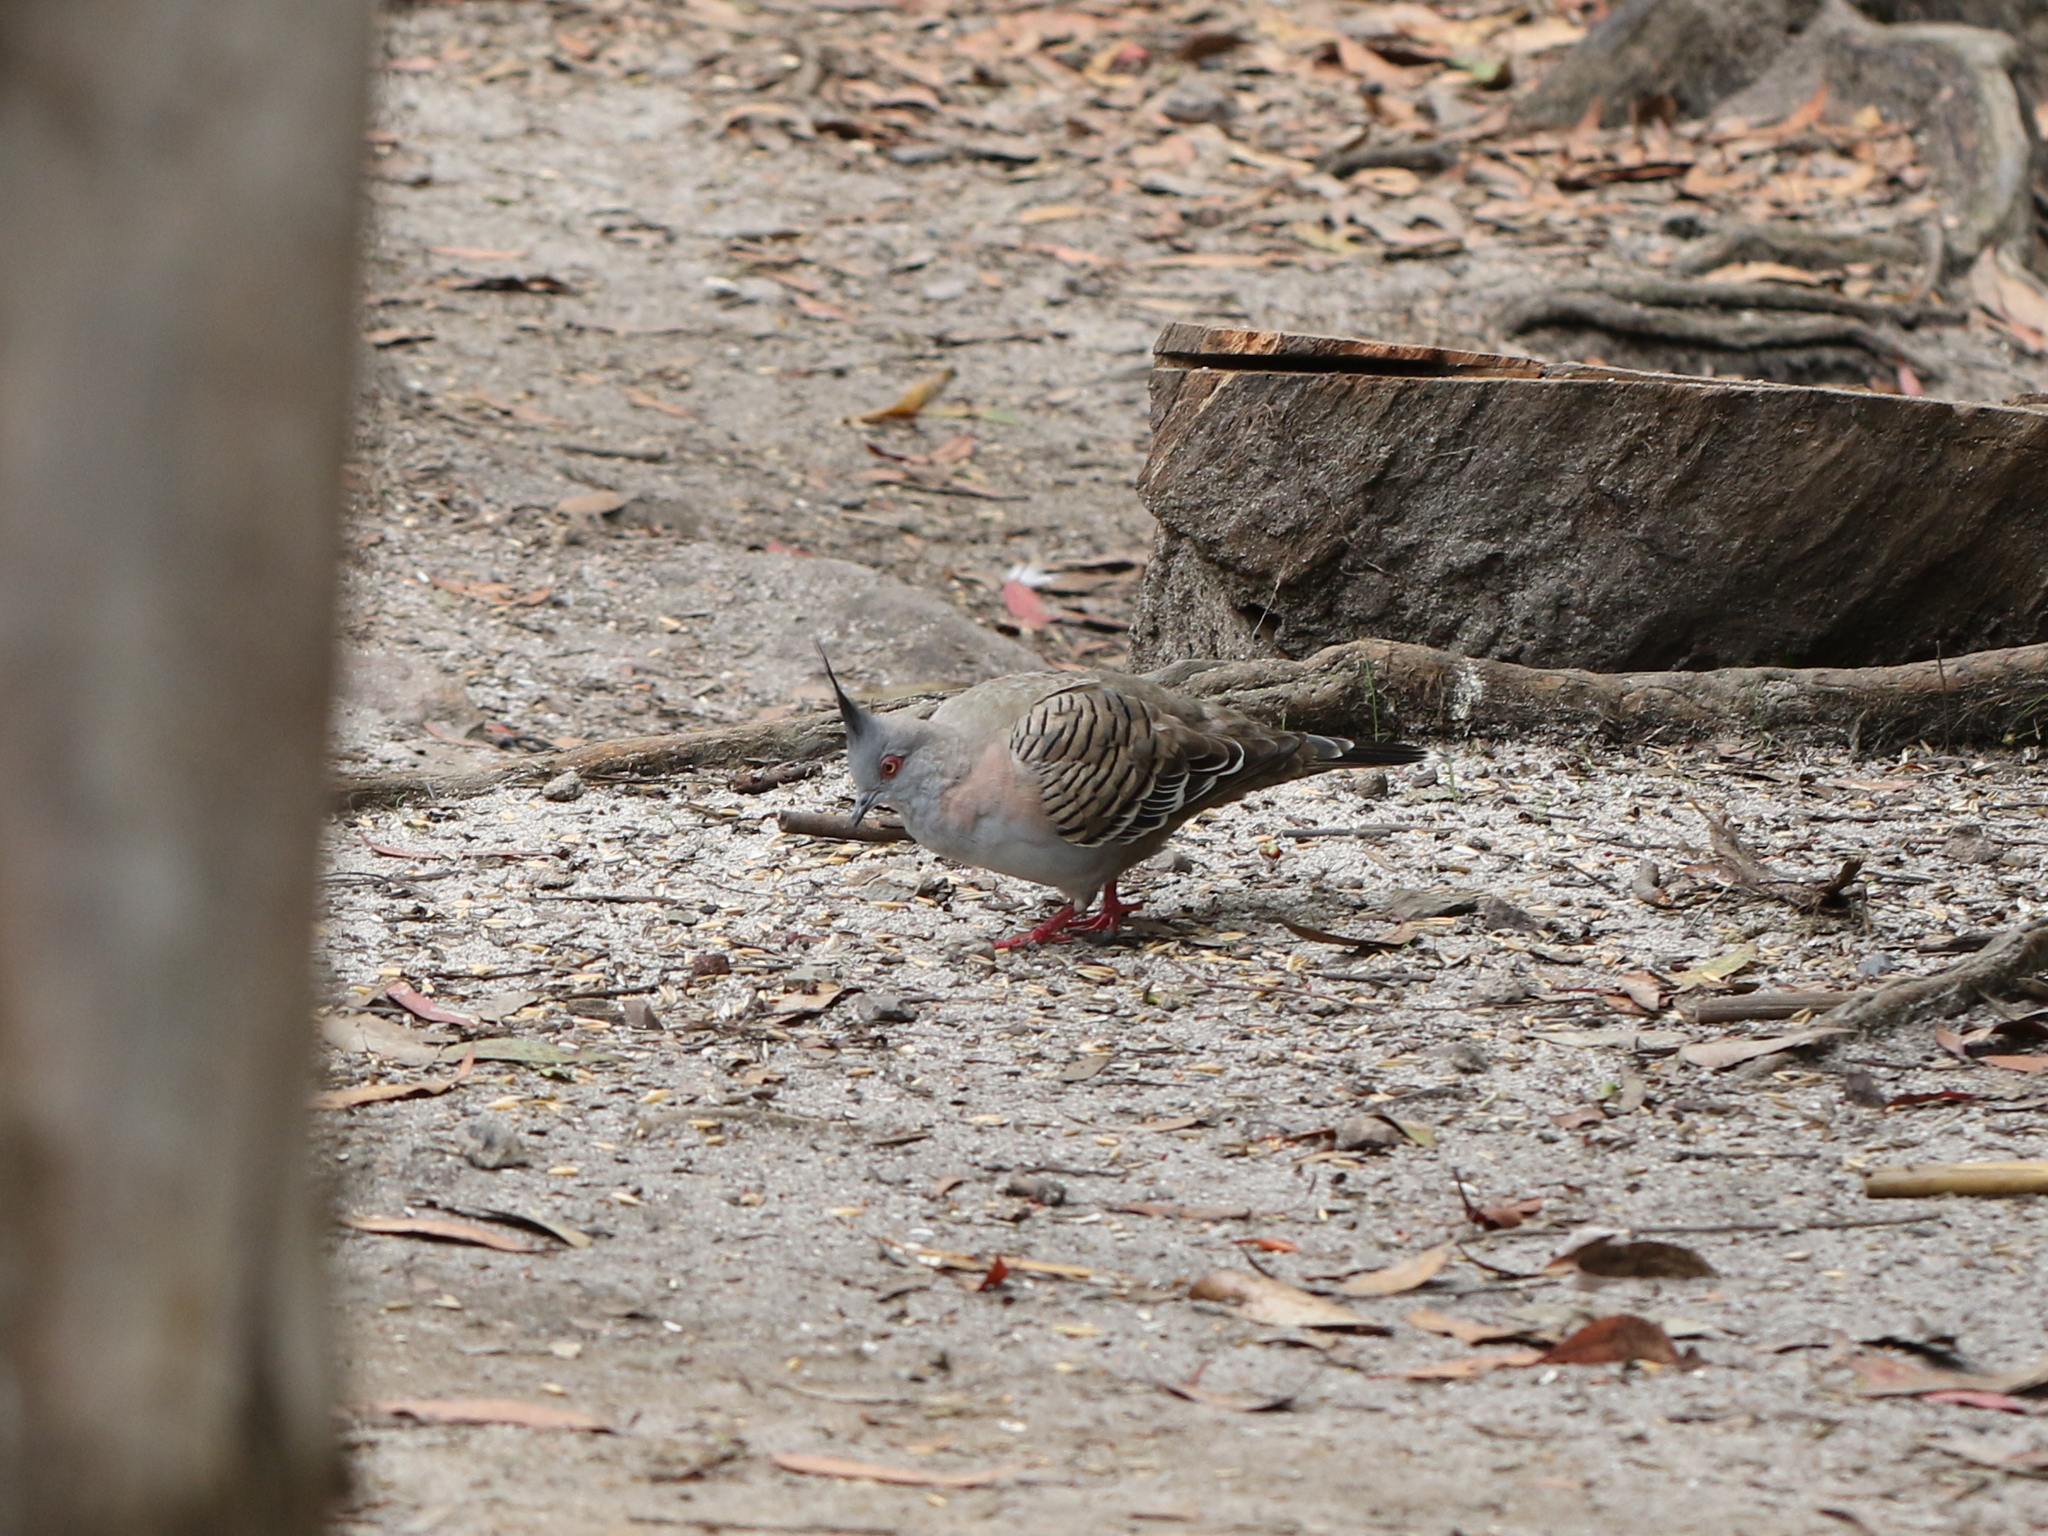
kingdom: Animalia
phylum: Chordata
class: Aves
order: Columbiformes
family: Columbidae
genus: Ocyphaps
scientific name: Ocyphaps lophotes
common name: Crested pigeon
